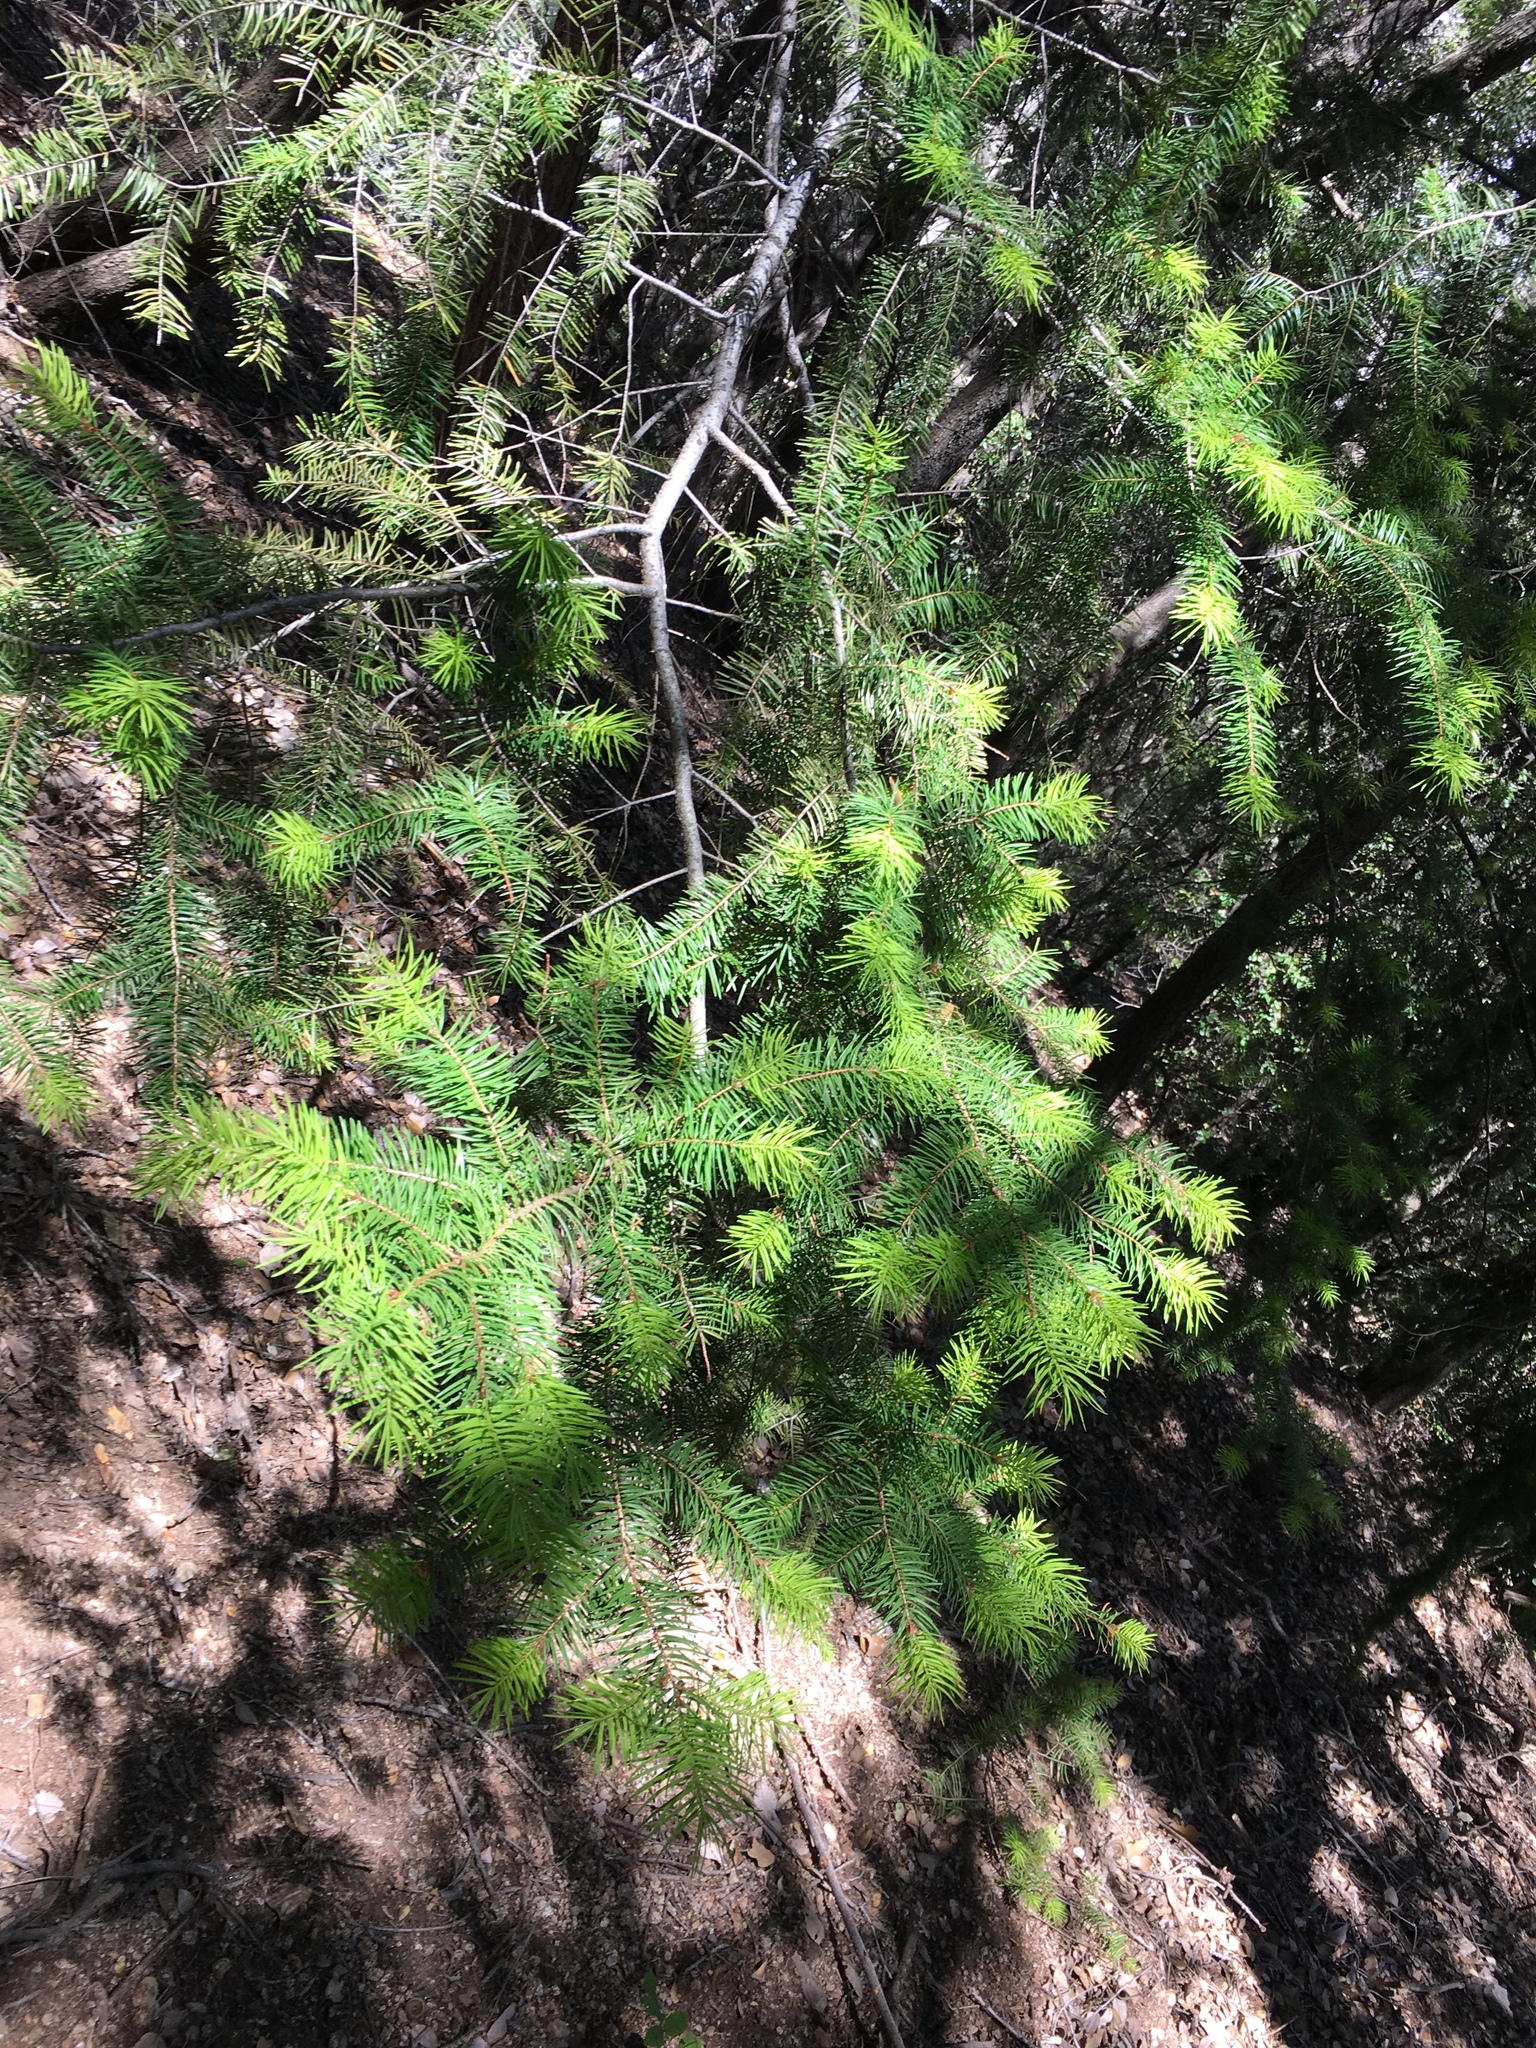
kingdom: Plantae
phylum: Tracheophyta
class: Pinopsida
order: Pinales
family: Pinaceae
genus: Pseudotsuga
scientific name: Pseudotsuga macrocarpa
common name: Big-cone douglas-fir
